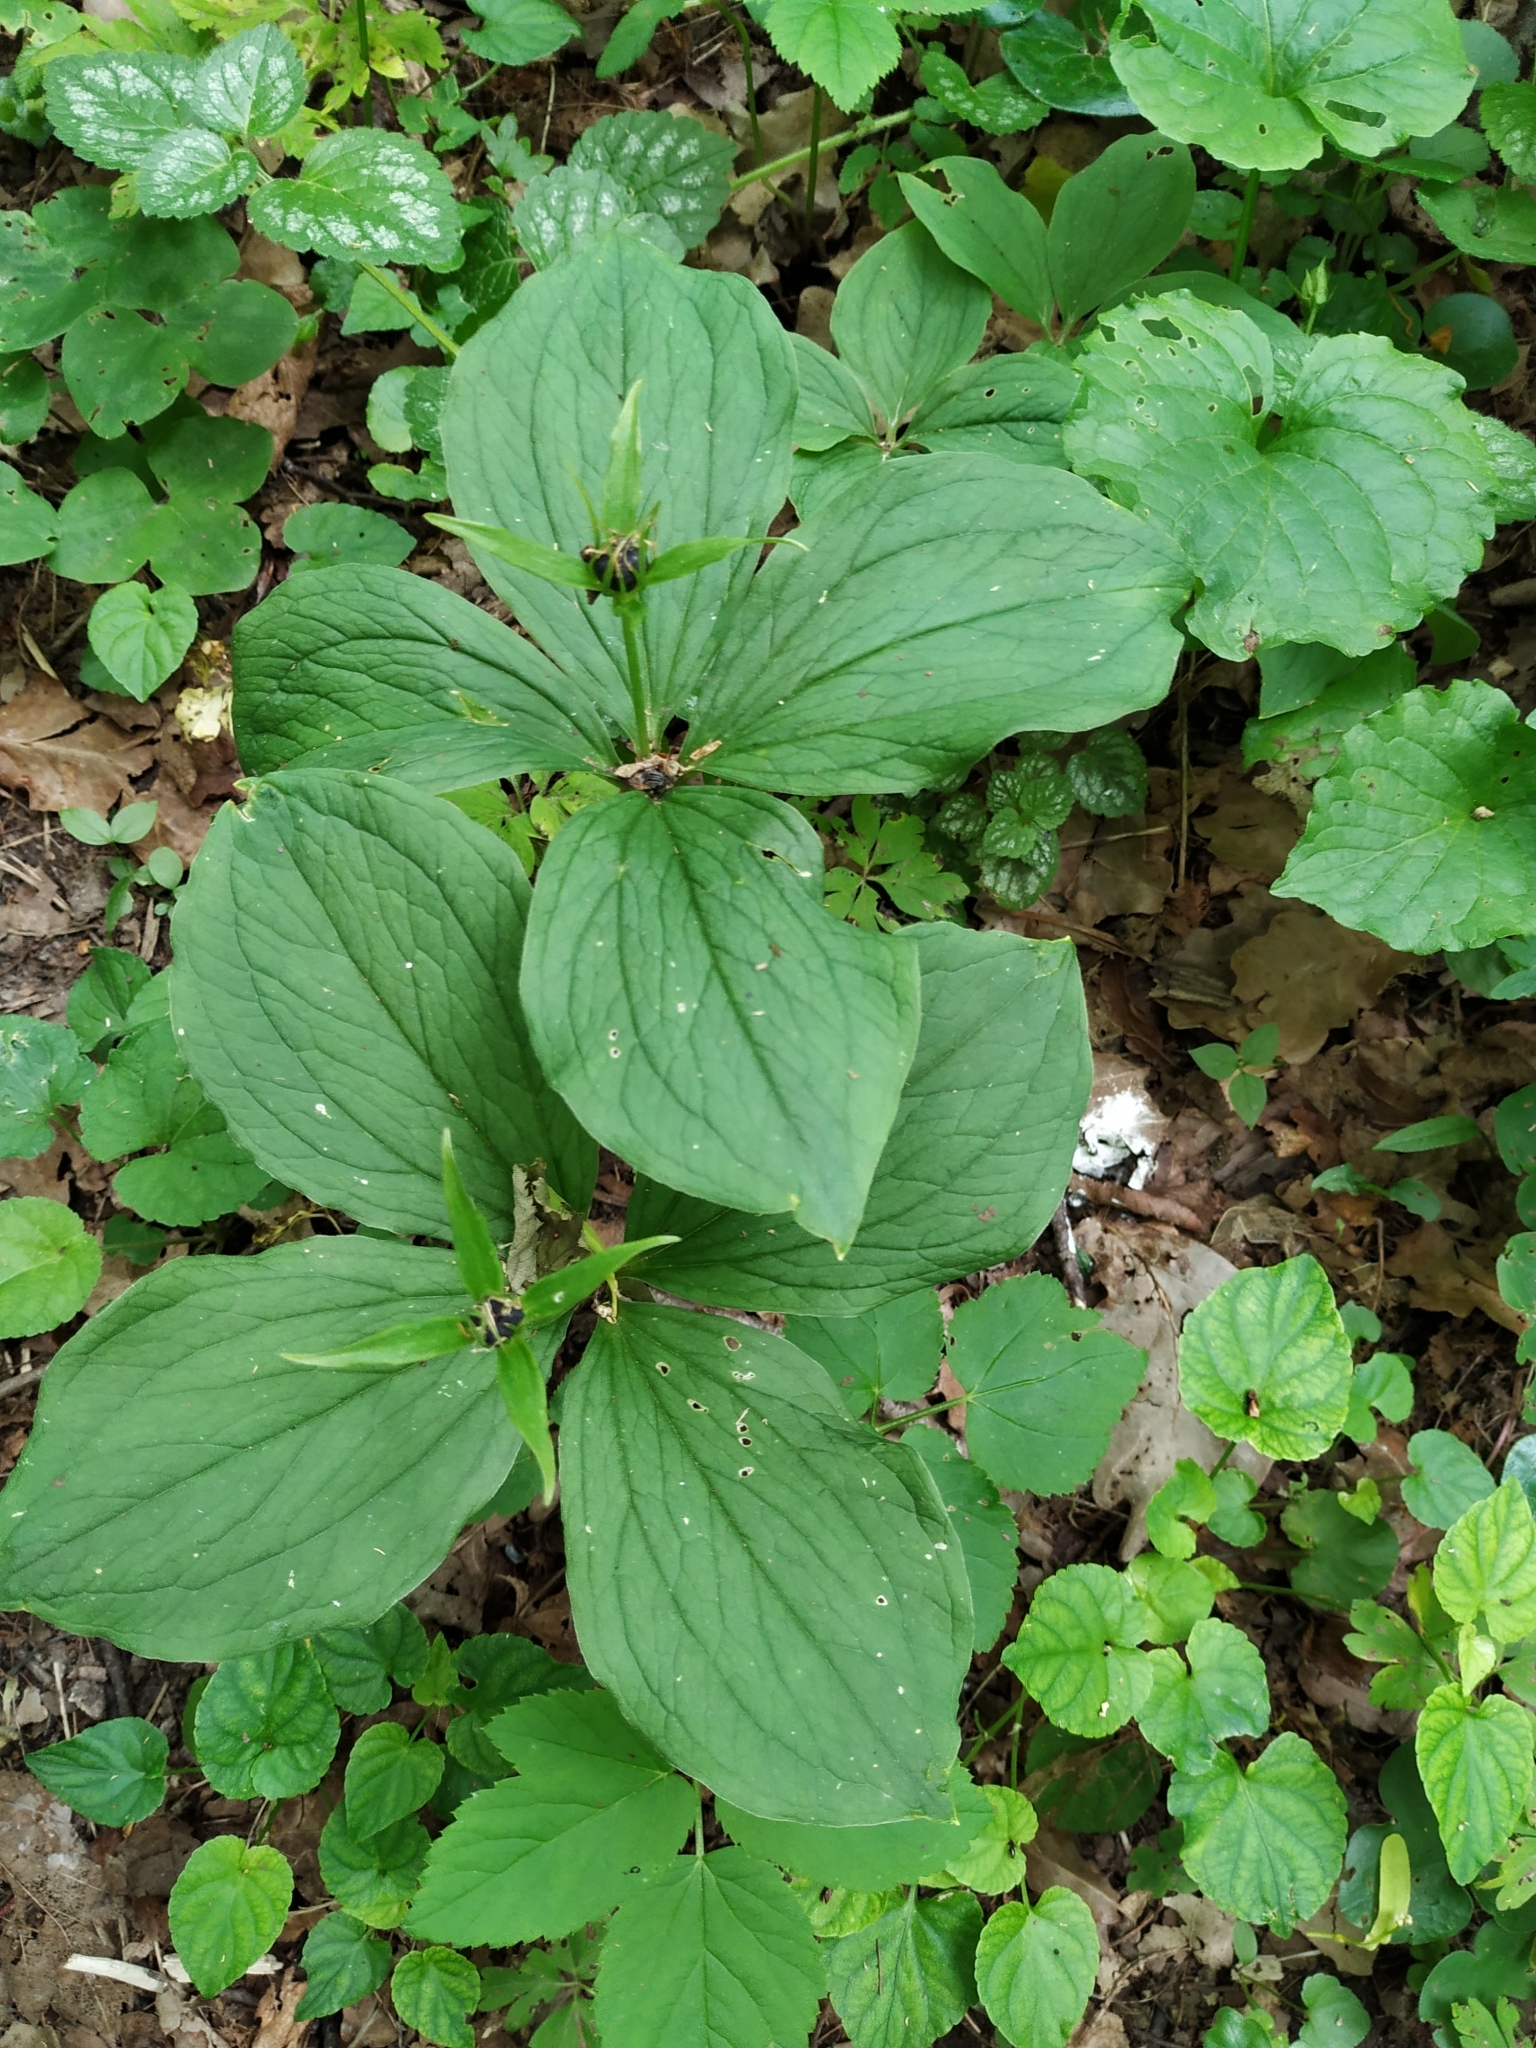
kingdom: Plantae
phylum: Tracheophyta
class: Liliopsida
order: Liliales
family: Melanthiaceae
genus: Paris
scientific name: Paris quadrifolia
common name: Herb-paris
